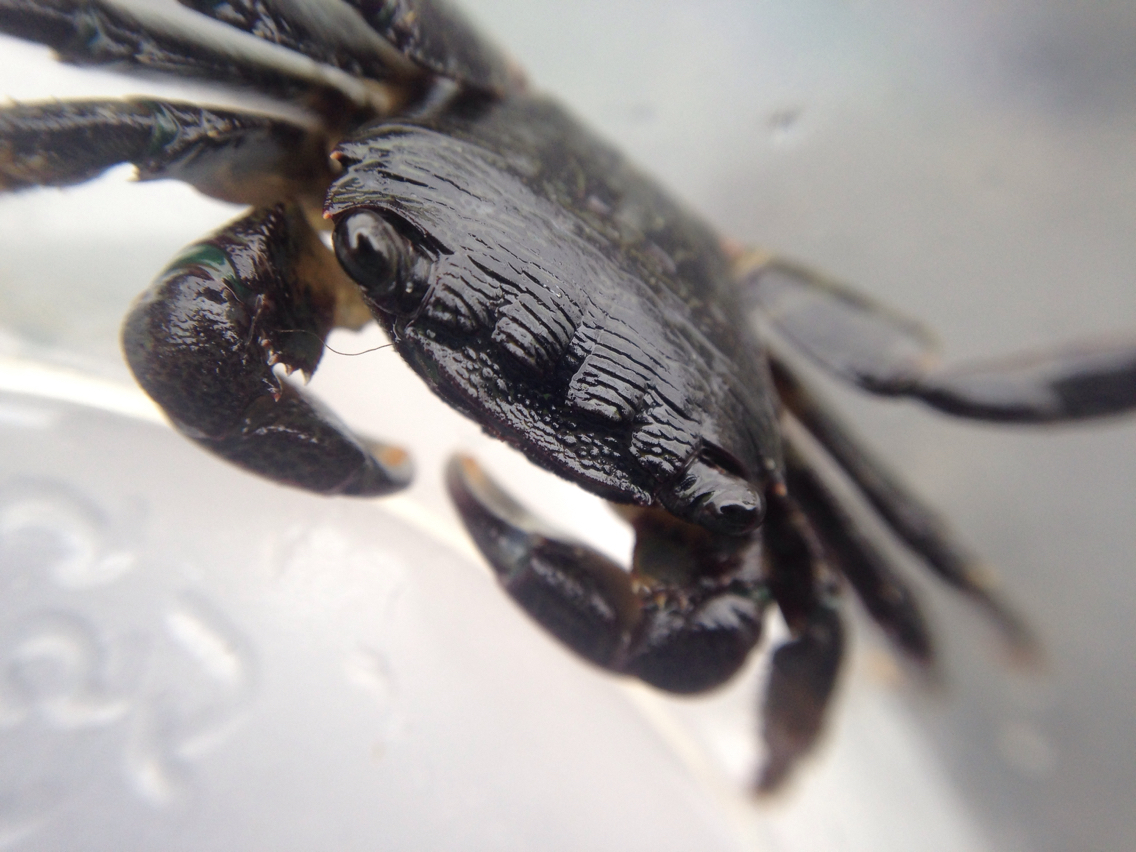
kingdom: Animalia
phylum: Arthropoda
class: Malacostraca
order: Decapoda
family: Grapsidae
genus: Pachygrapsus
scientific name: Pachygrapsus crassipes
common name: Striped shore crab
